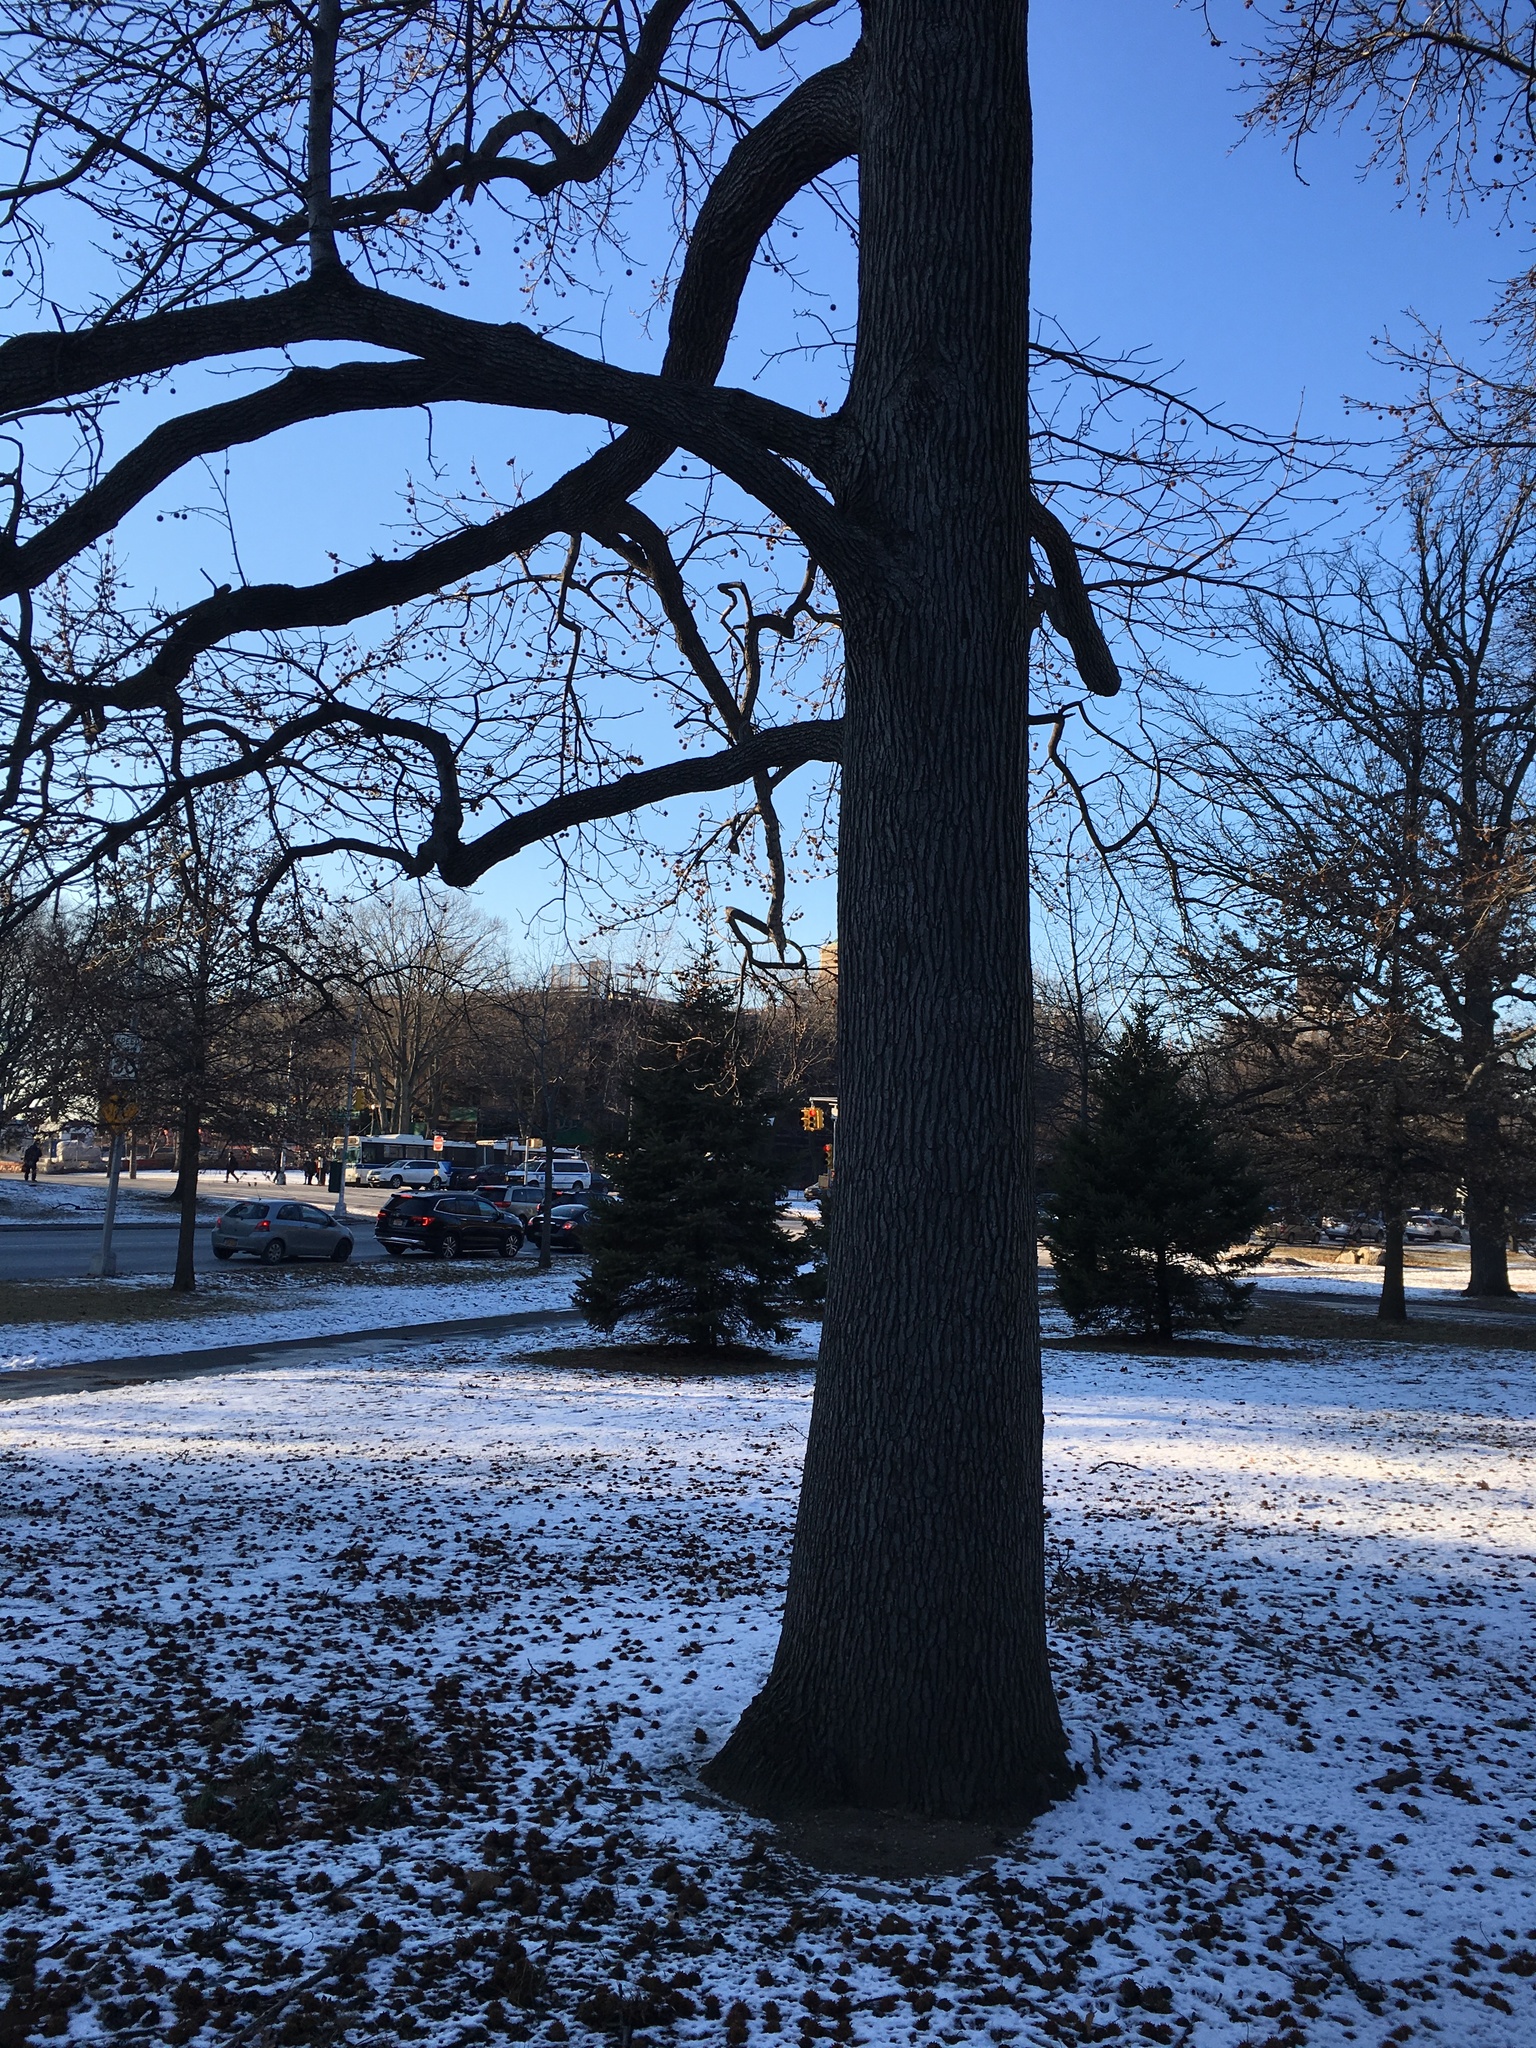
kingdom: Plantae
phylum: Tracheophyta
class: Magnoliopsida
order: Saxifragales
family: Altingiaceae
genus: Liquidambar
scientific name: Liquidambar styraciflua
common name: Sweet gum
